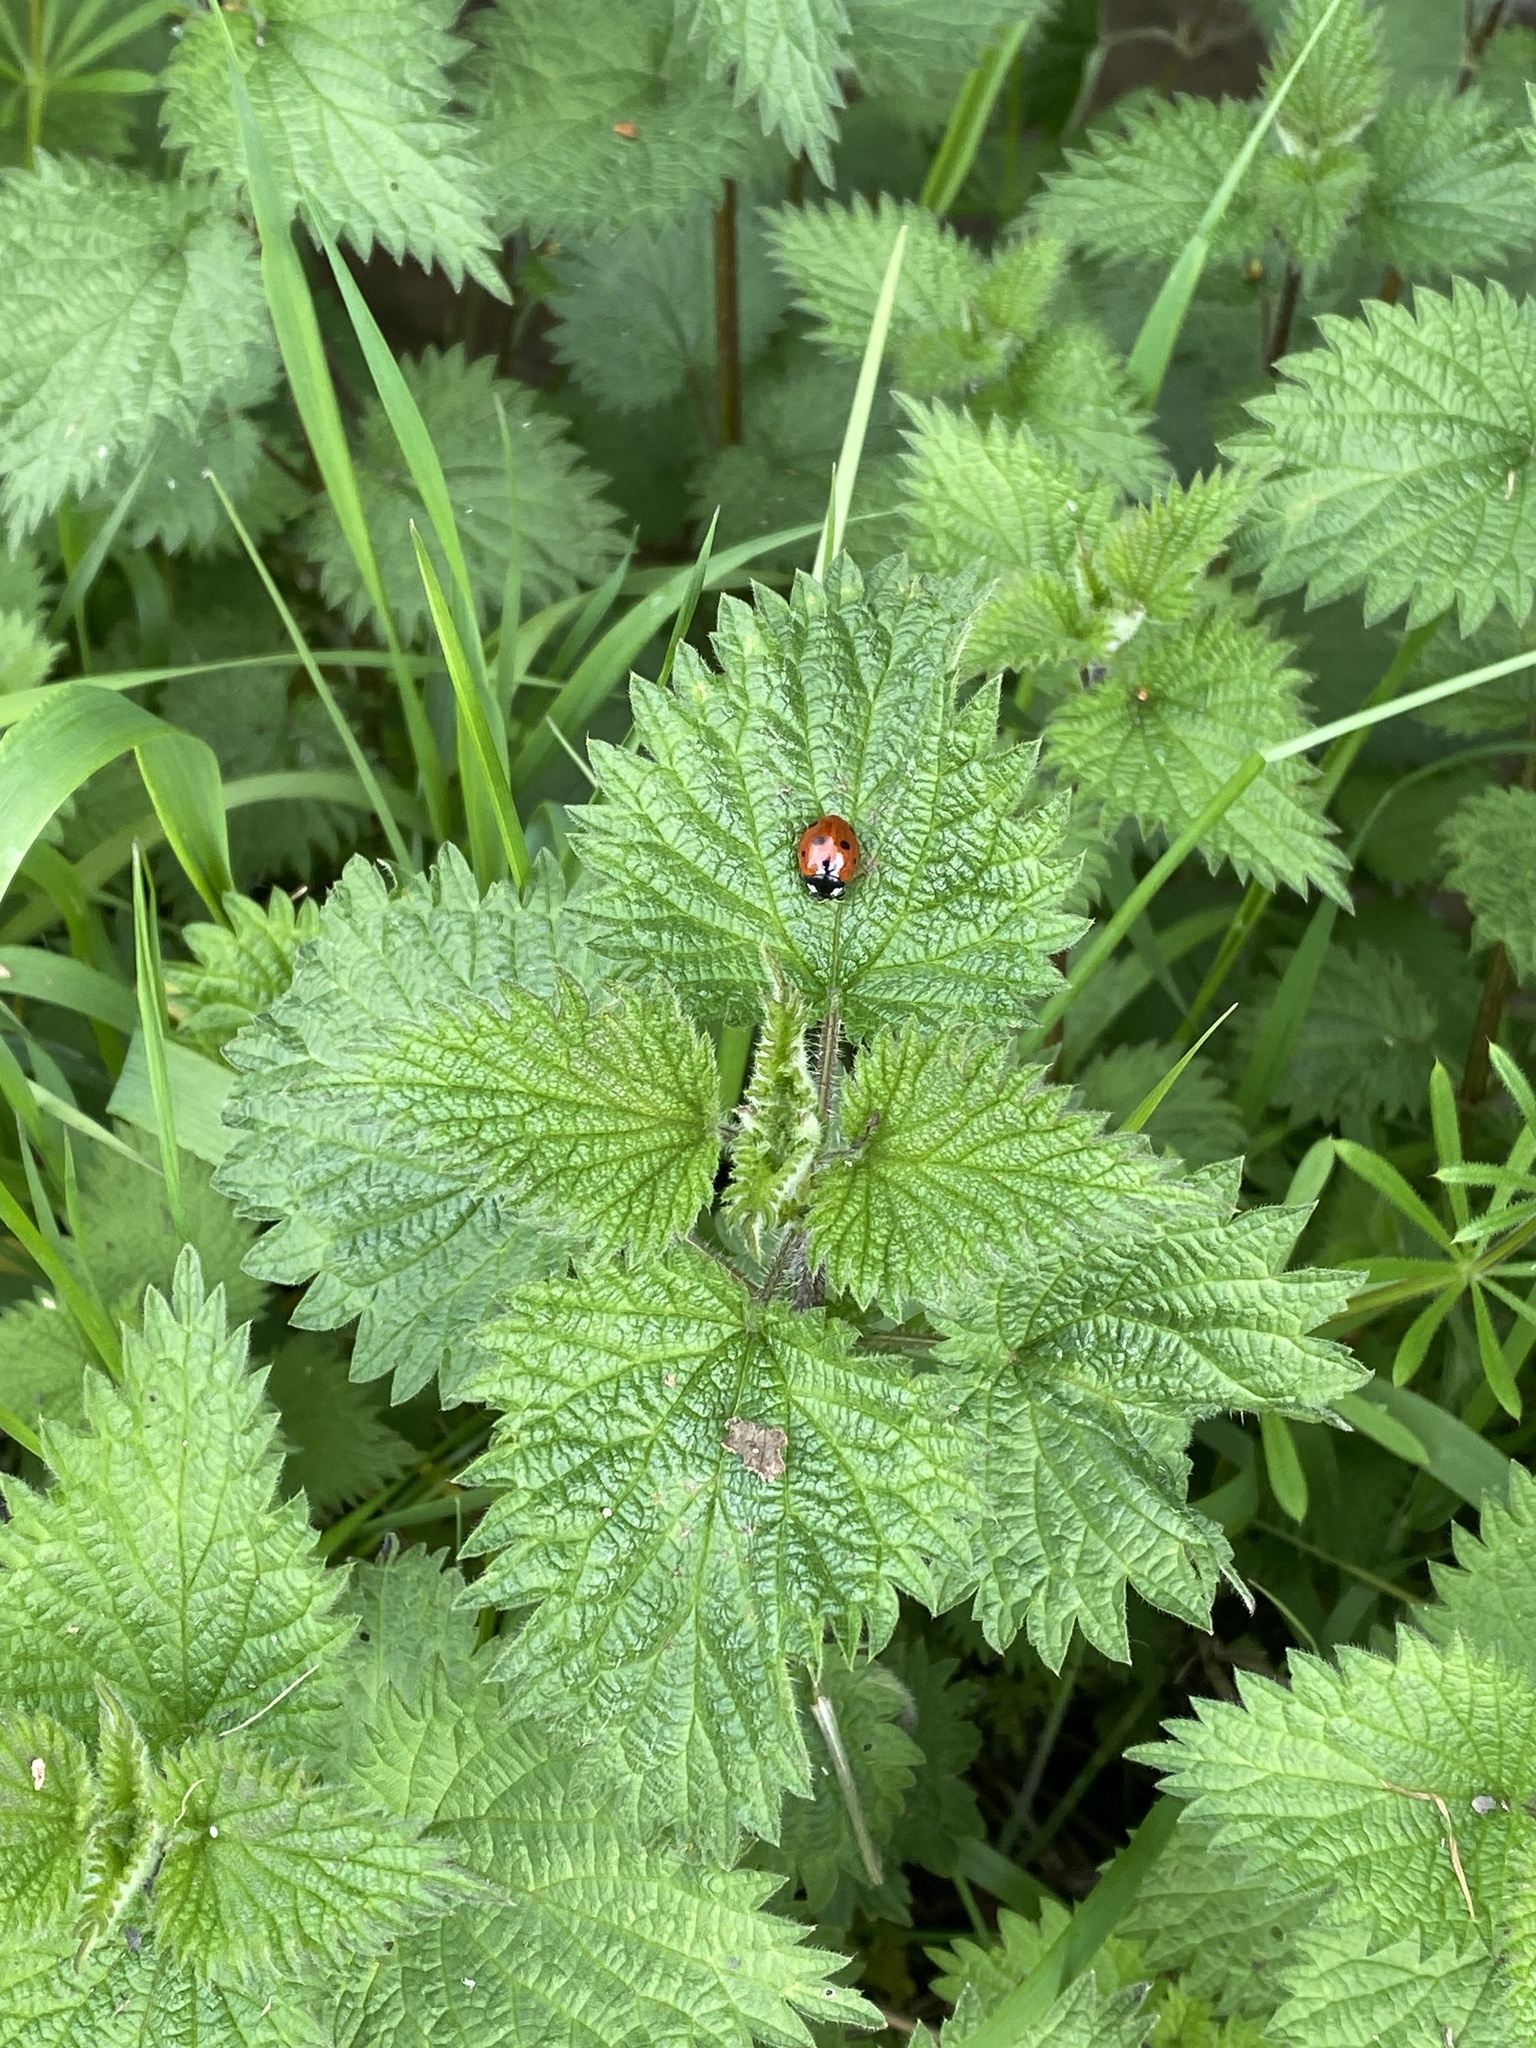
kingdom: Animalia
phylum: Arthropoda
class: Insecta
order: Coleoptera
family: Coccinellidae
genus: Coccinella
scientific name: Coccinella septempunctata
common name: Sevenspotted lady beetle
